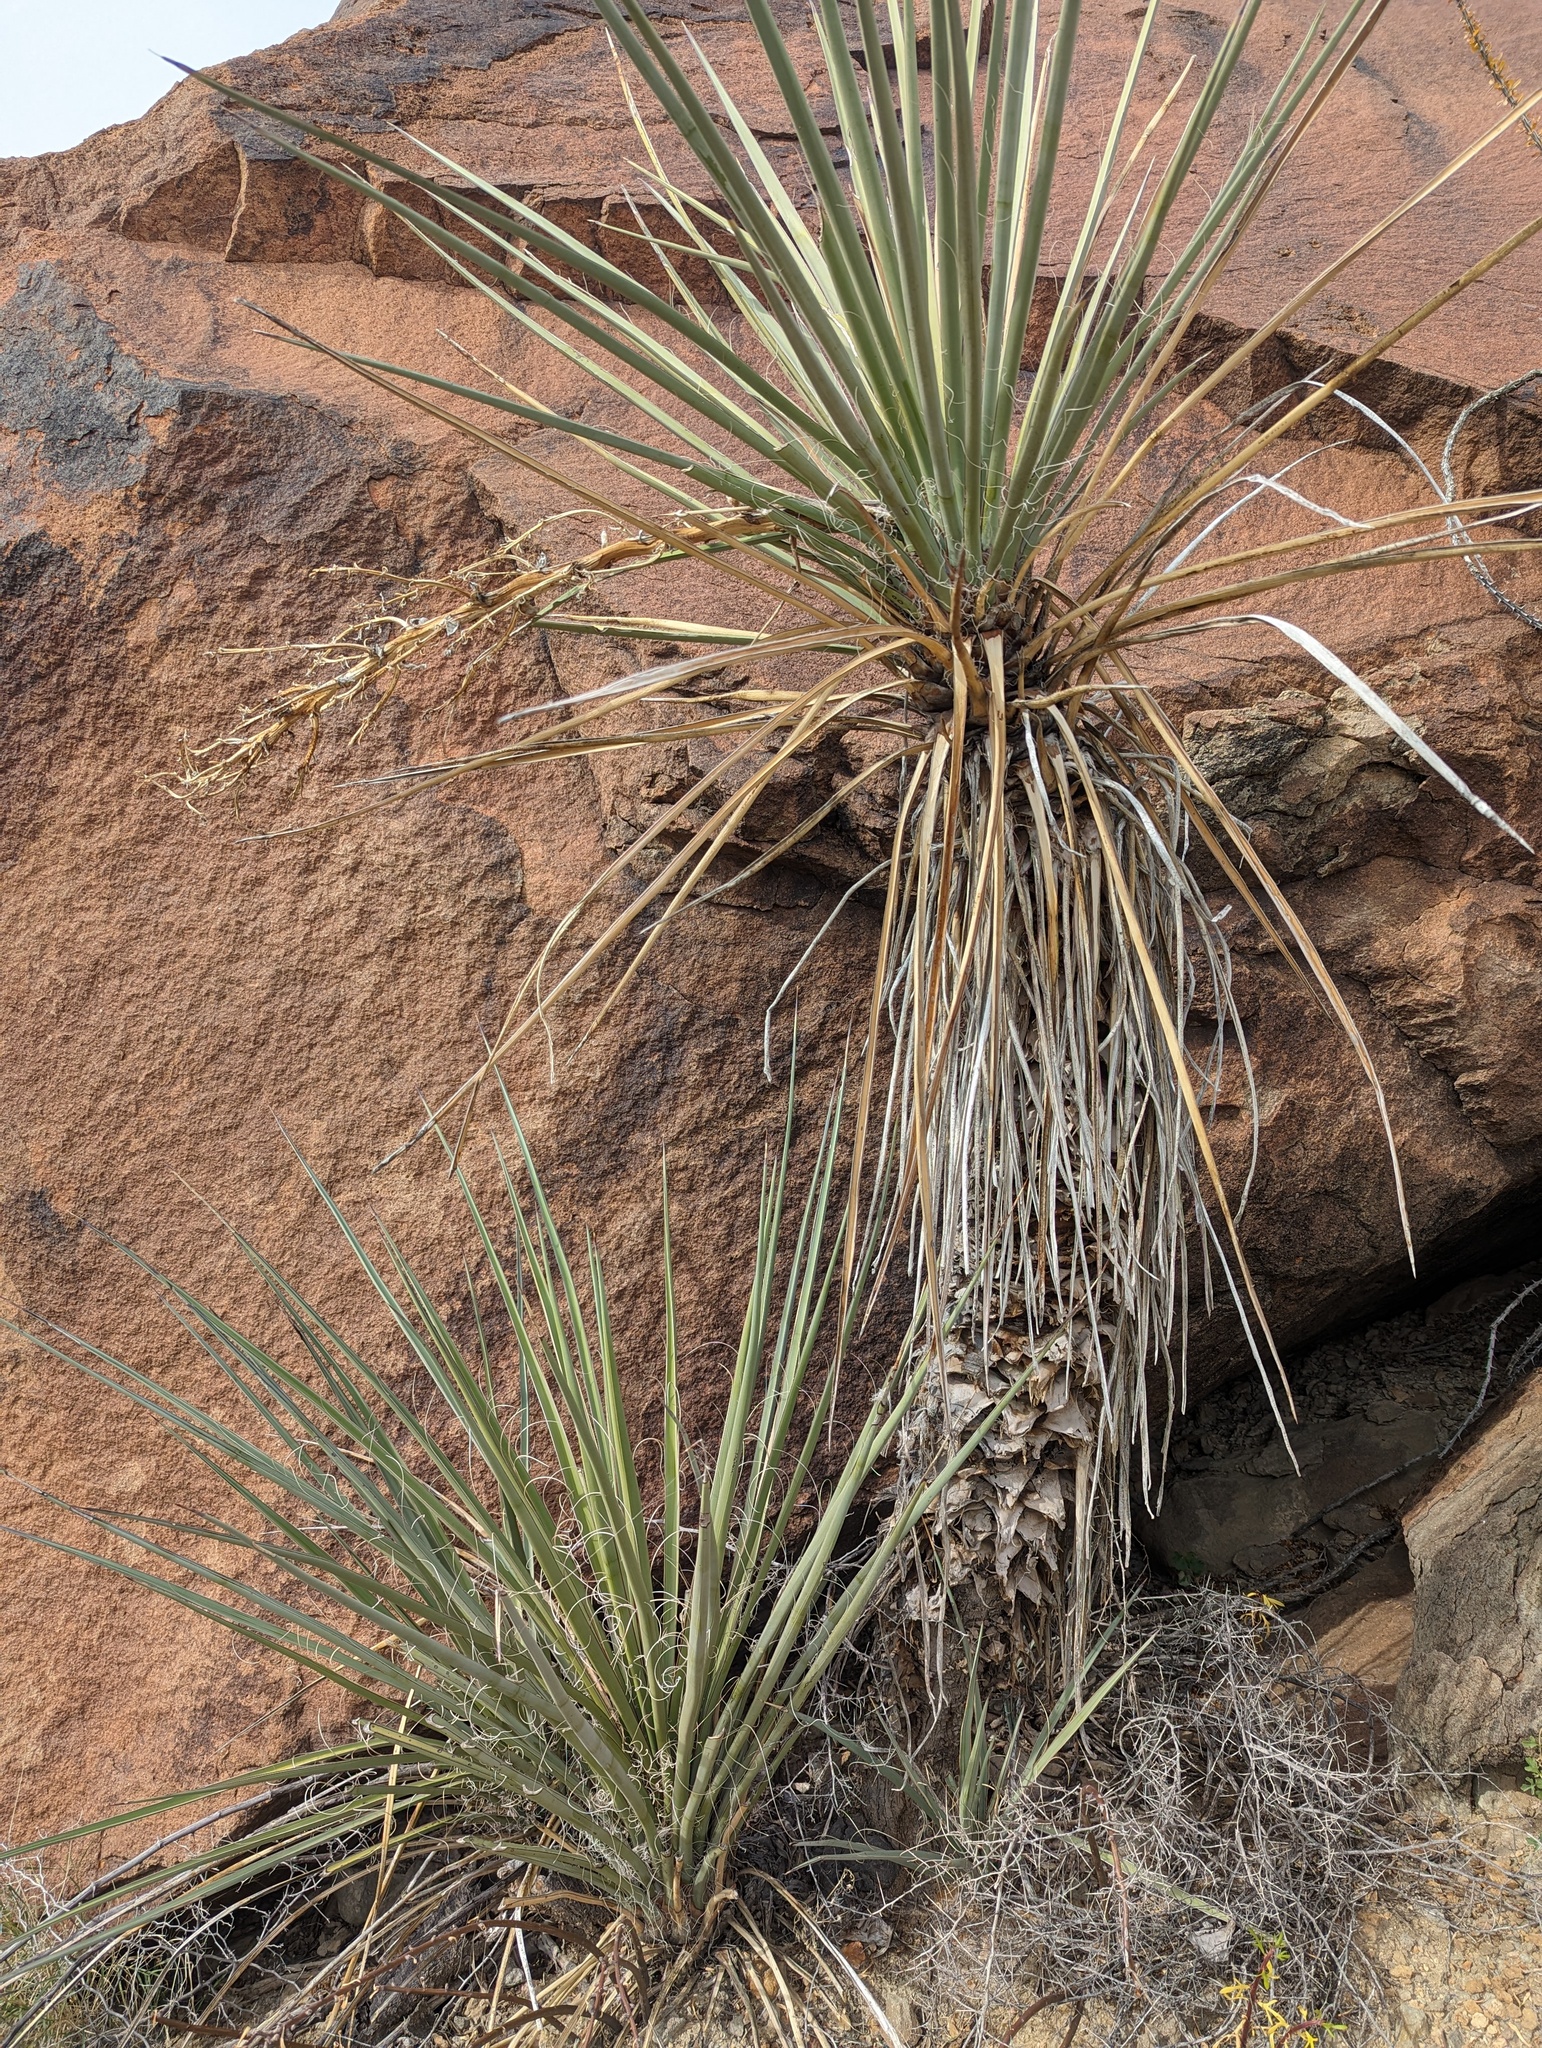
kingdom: Plantae
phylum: Tracheophyta
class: Liliopsida
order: Asparagales
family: Asparagaceae
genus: Yucca
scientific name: Yucca treculiana
